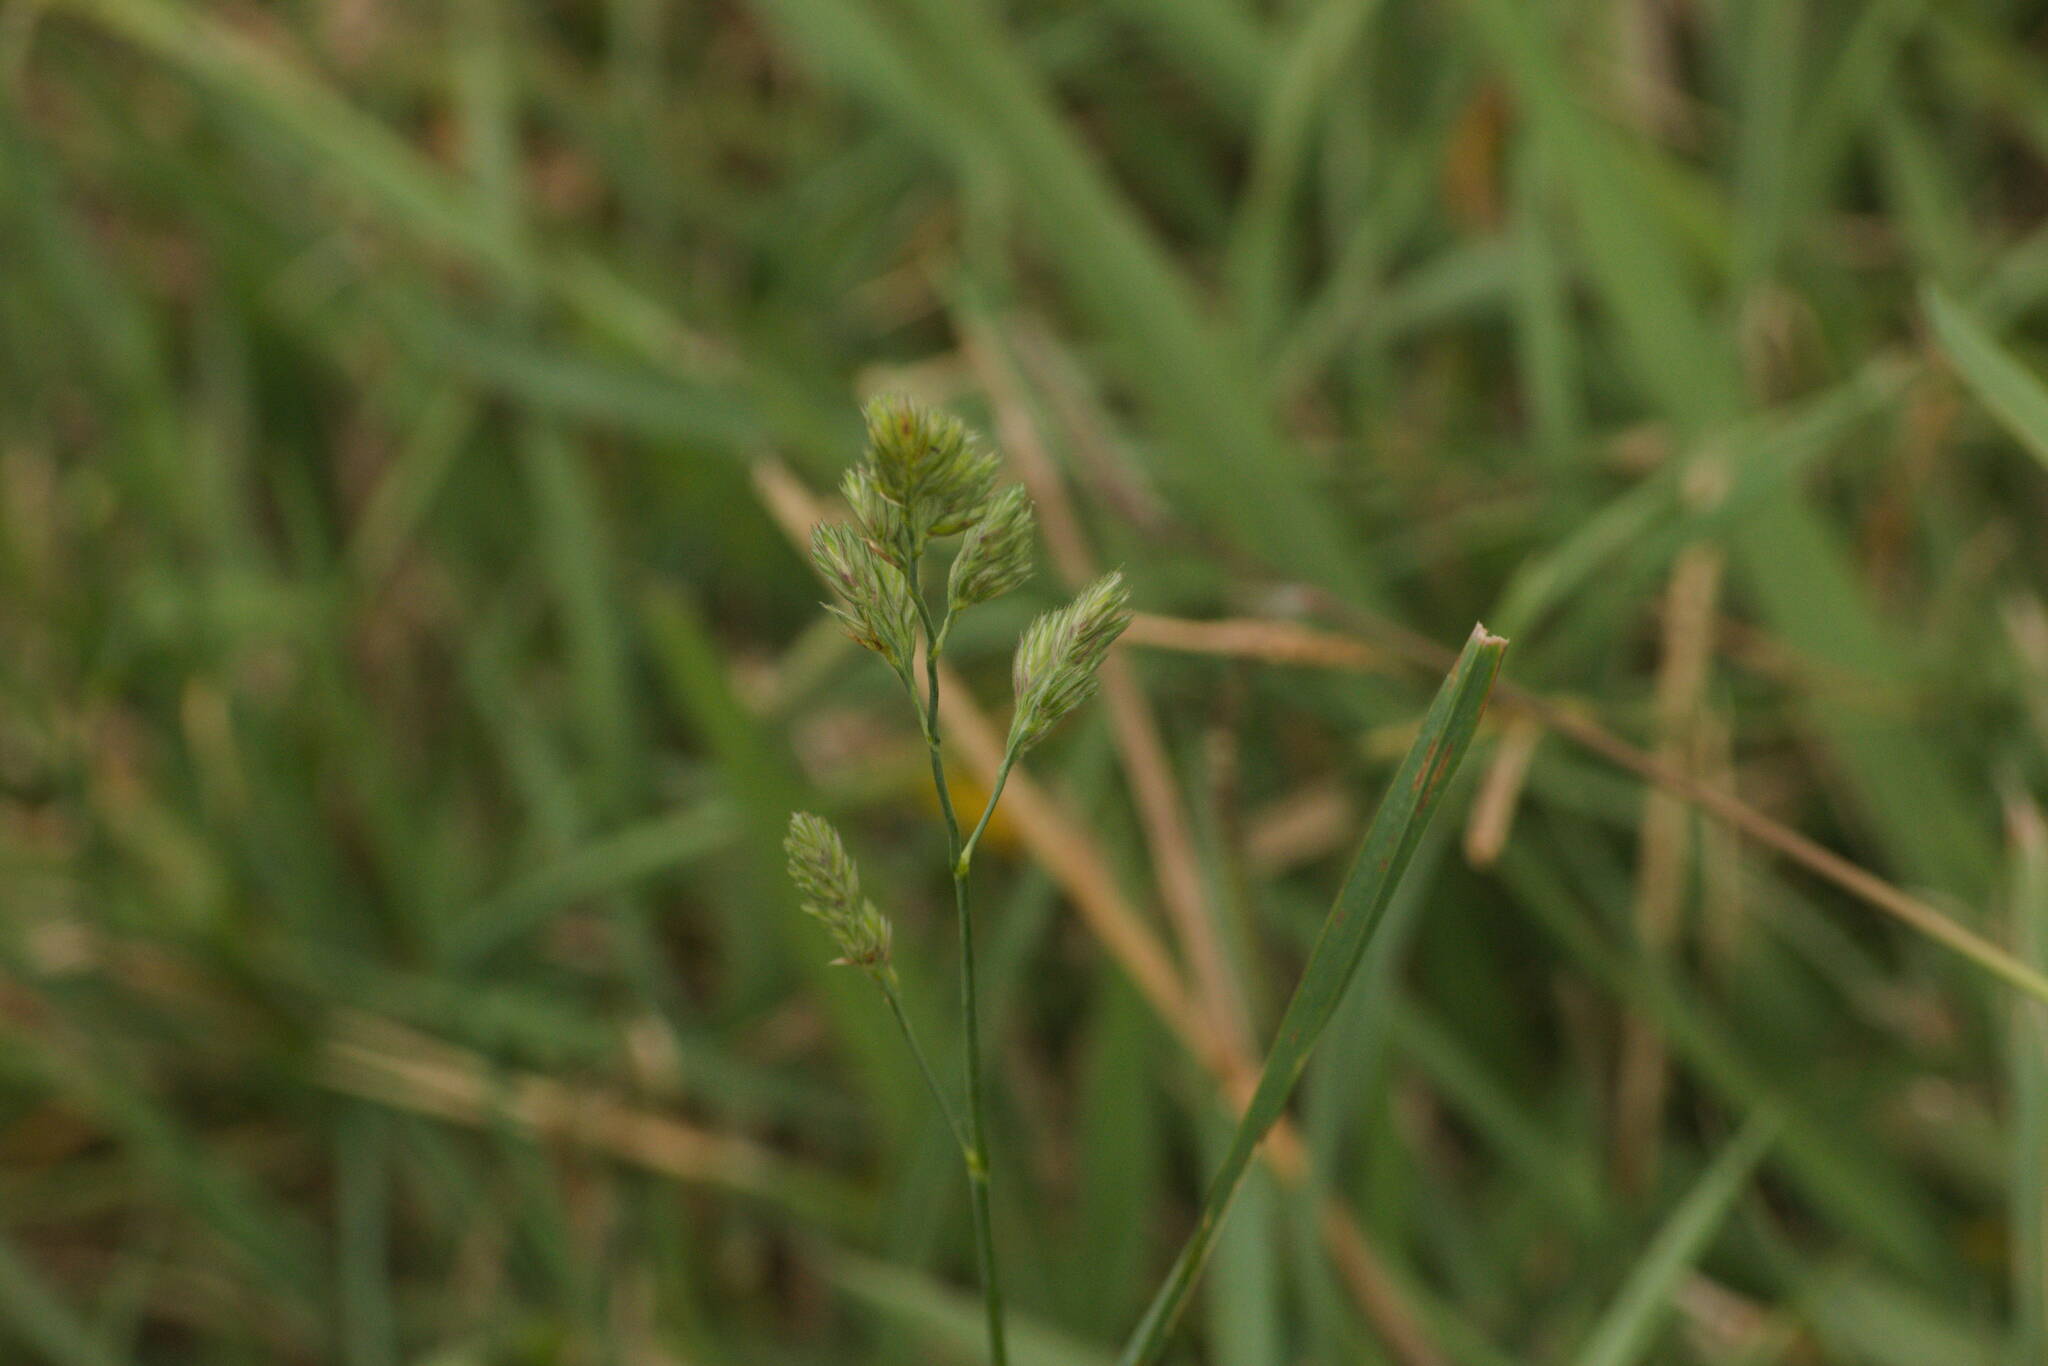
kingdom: Plantae
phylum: Tracheophyta
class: Liliopsida
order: Poales
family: Poaceae
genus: Dactylis
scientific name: Dactylis glomerata
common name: Orchardgrass
